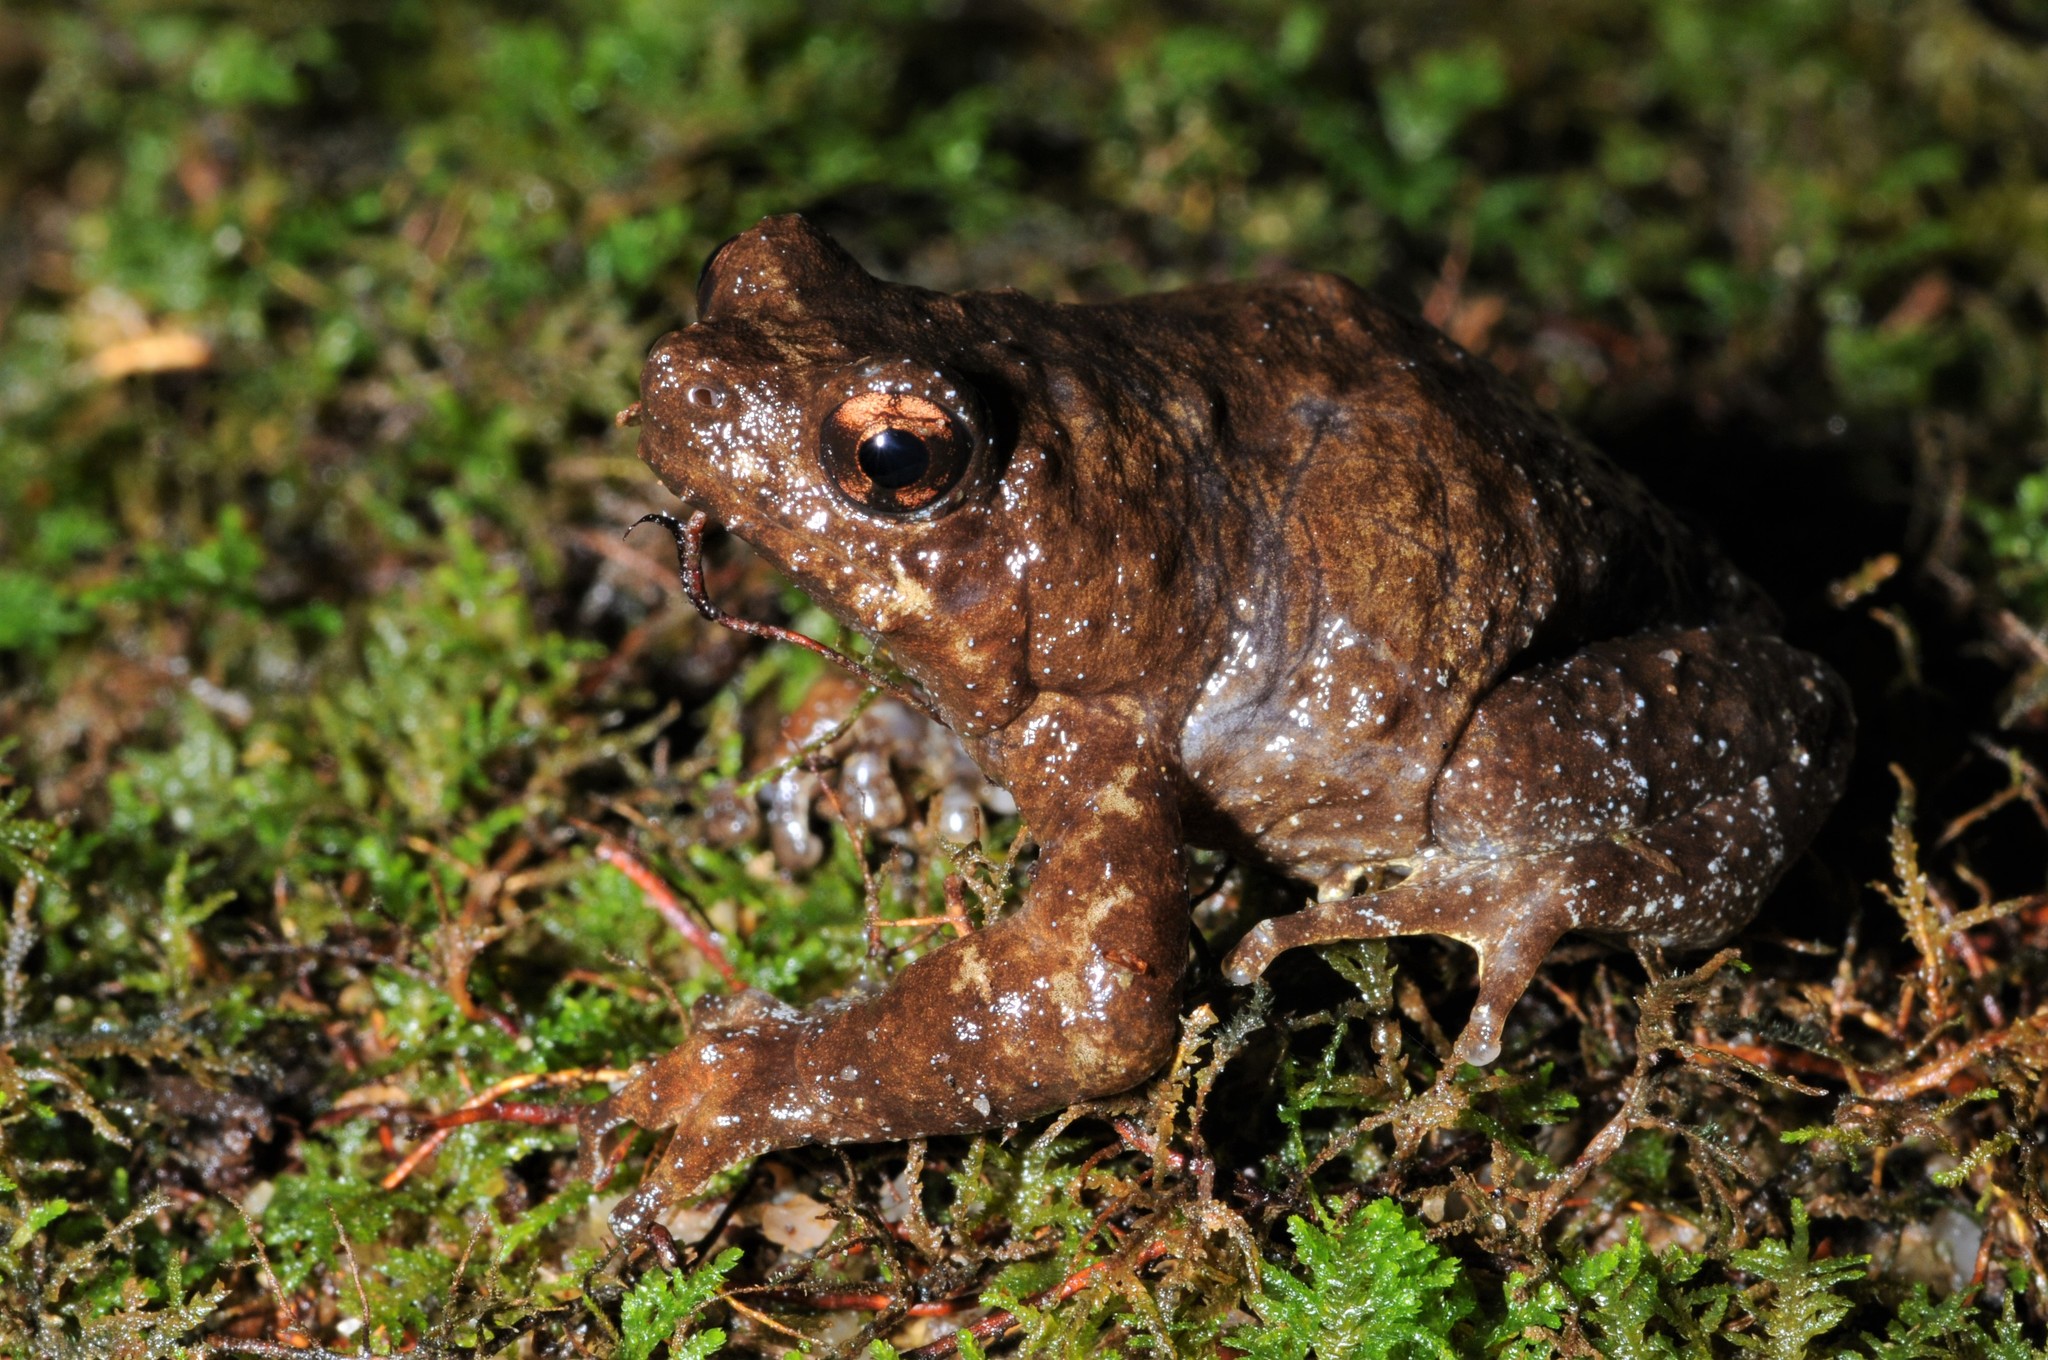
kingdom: Animalia
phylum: Chordata
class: Amphibia
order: Anura
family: Microhylidae
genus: Metaphrynella
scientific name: Metaphrynella pollicaris
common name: Malaysian treehole frog
